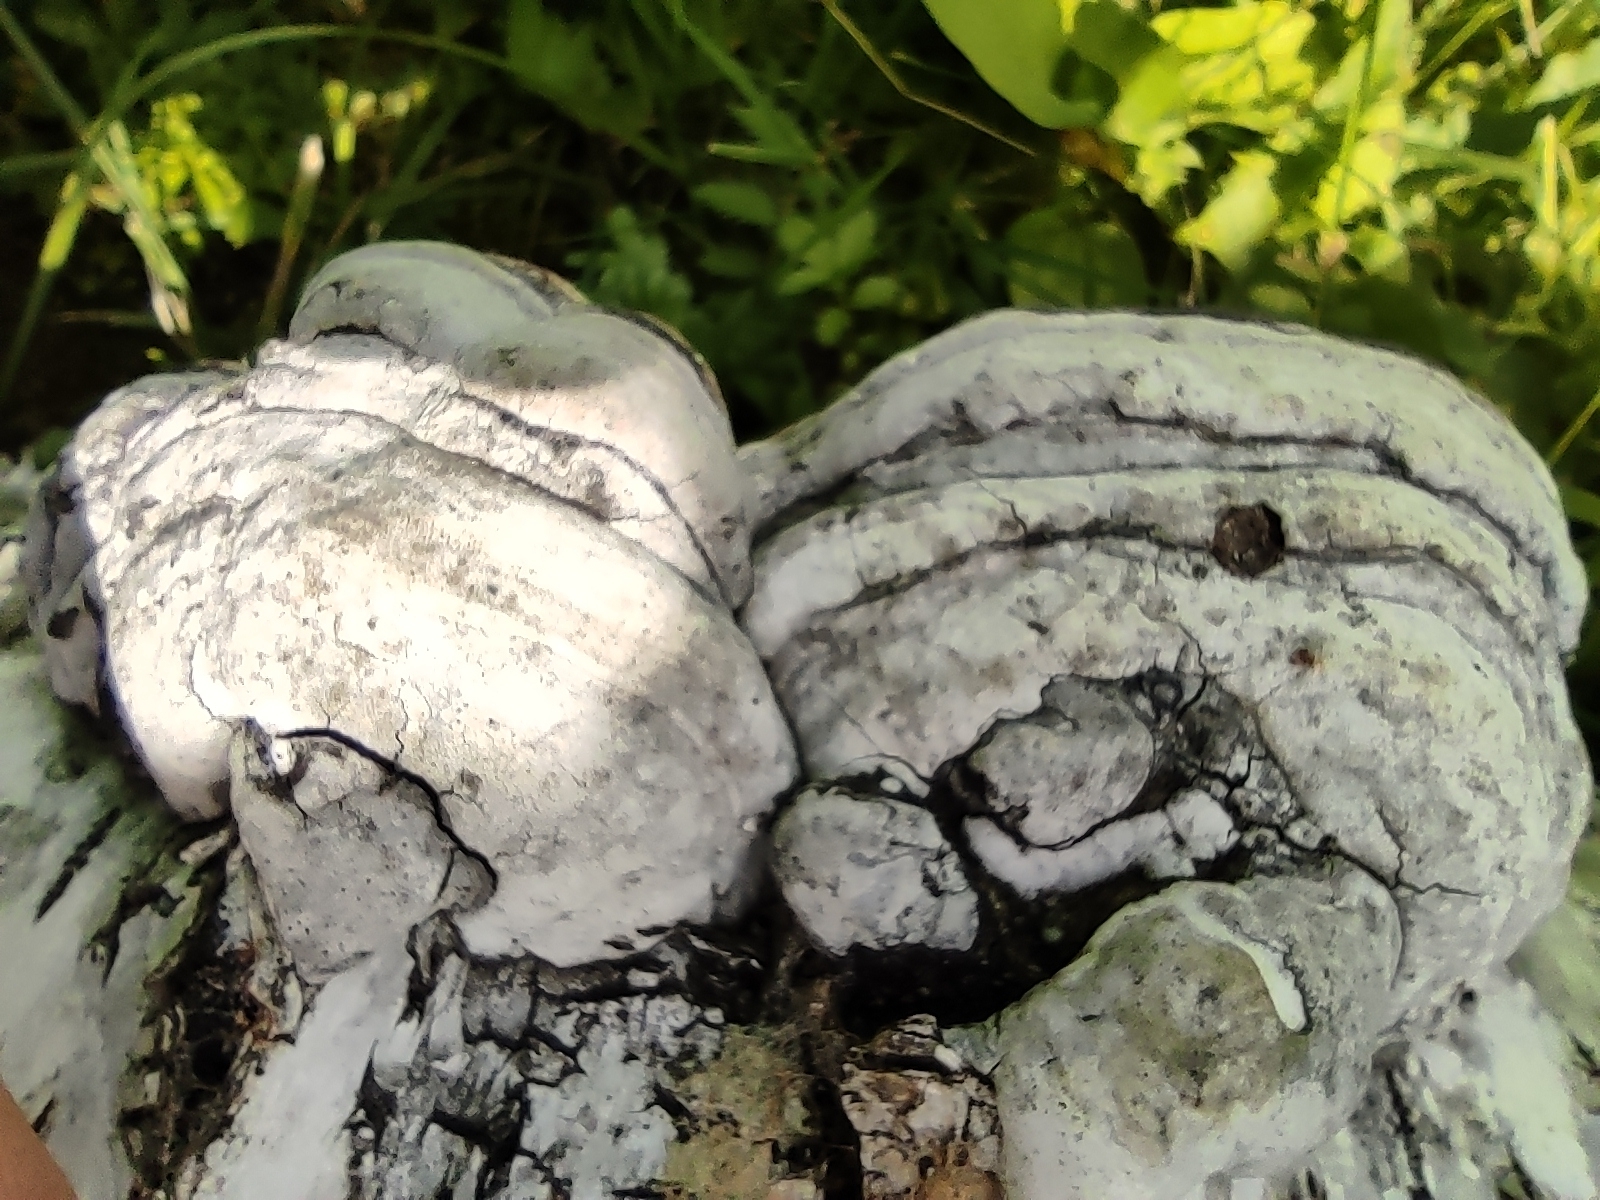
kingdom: Fungi
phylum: Basidiomycota
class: Agaricomycetes
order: Polyporales
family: Polyporaceae
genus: Fomes
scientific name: Fomes fomentarius
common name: Hoof fungus
